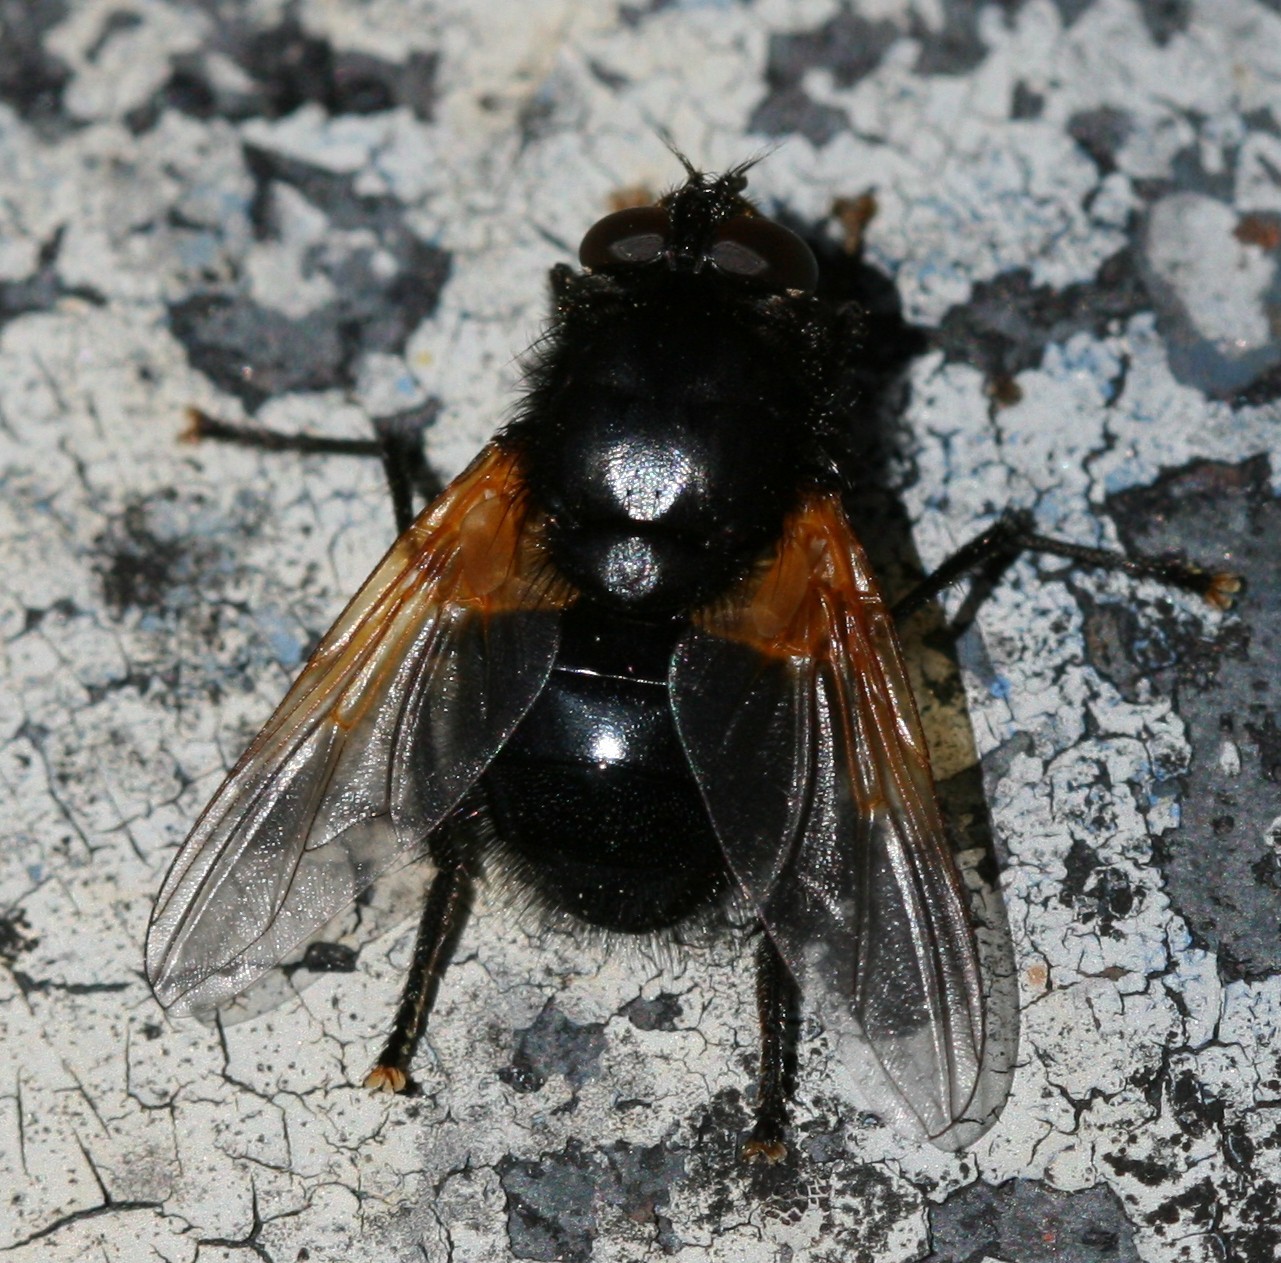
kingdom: Animalia
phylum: Arthropoda
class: Insecta
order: Diptera
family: Muscidae
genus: Mesembrina
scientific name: Mesembrina meridiana
